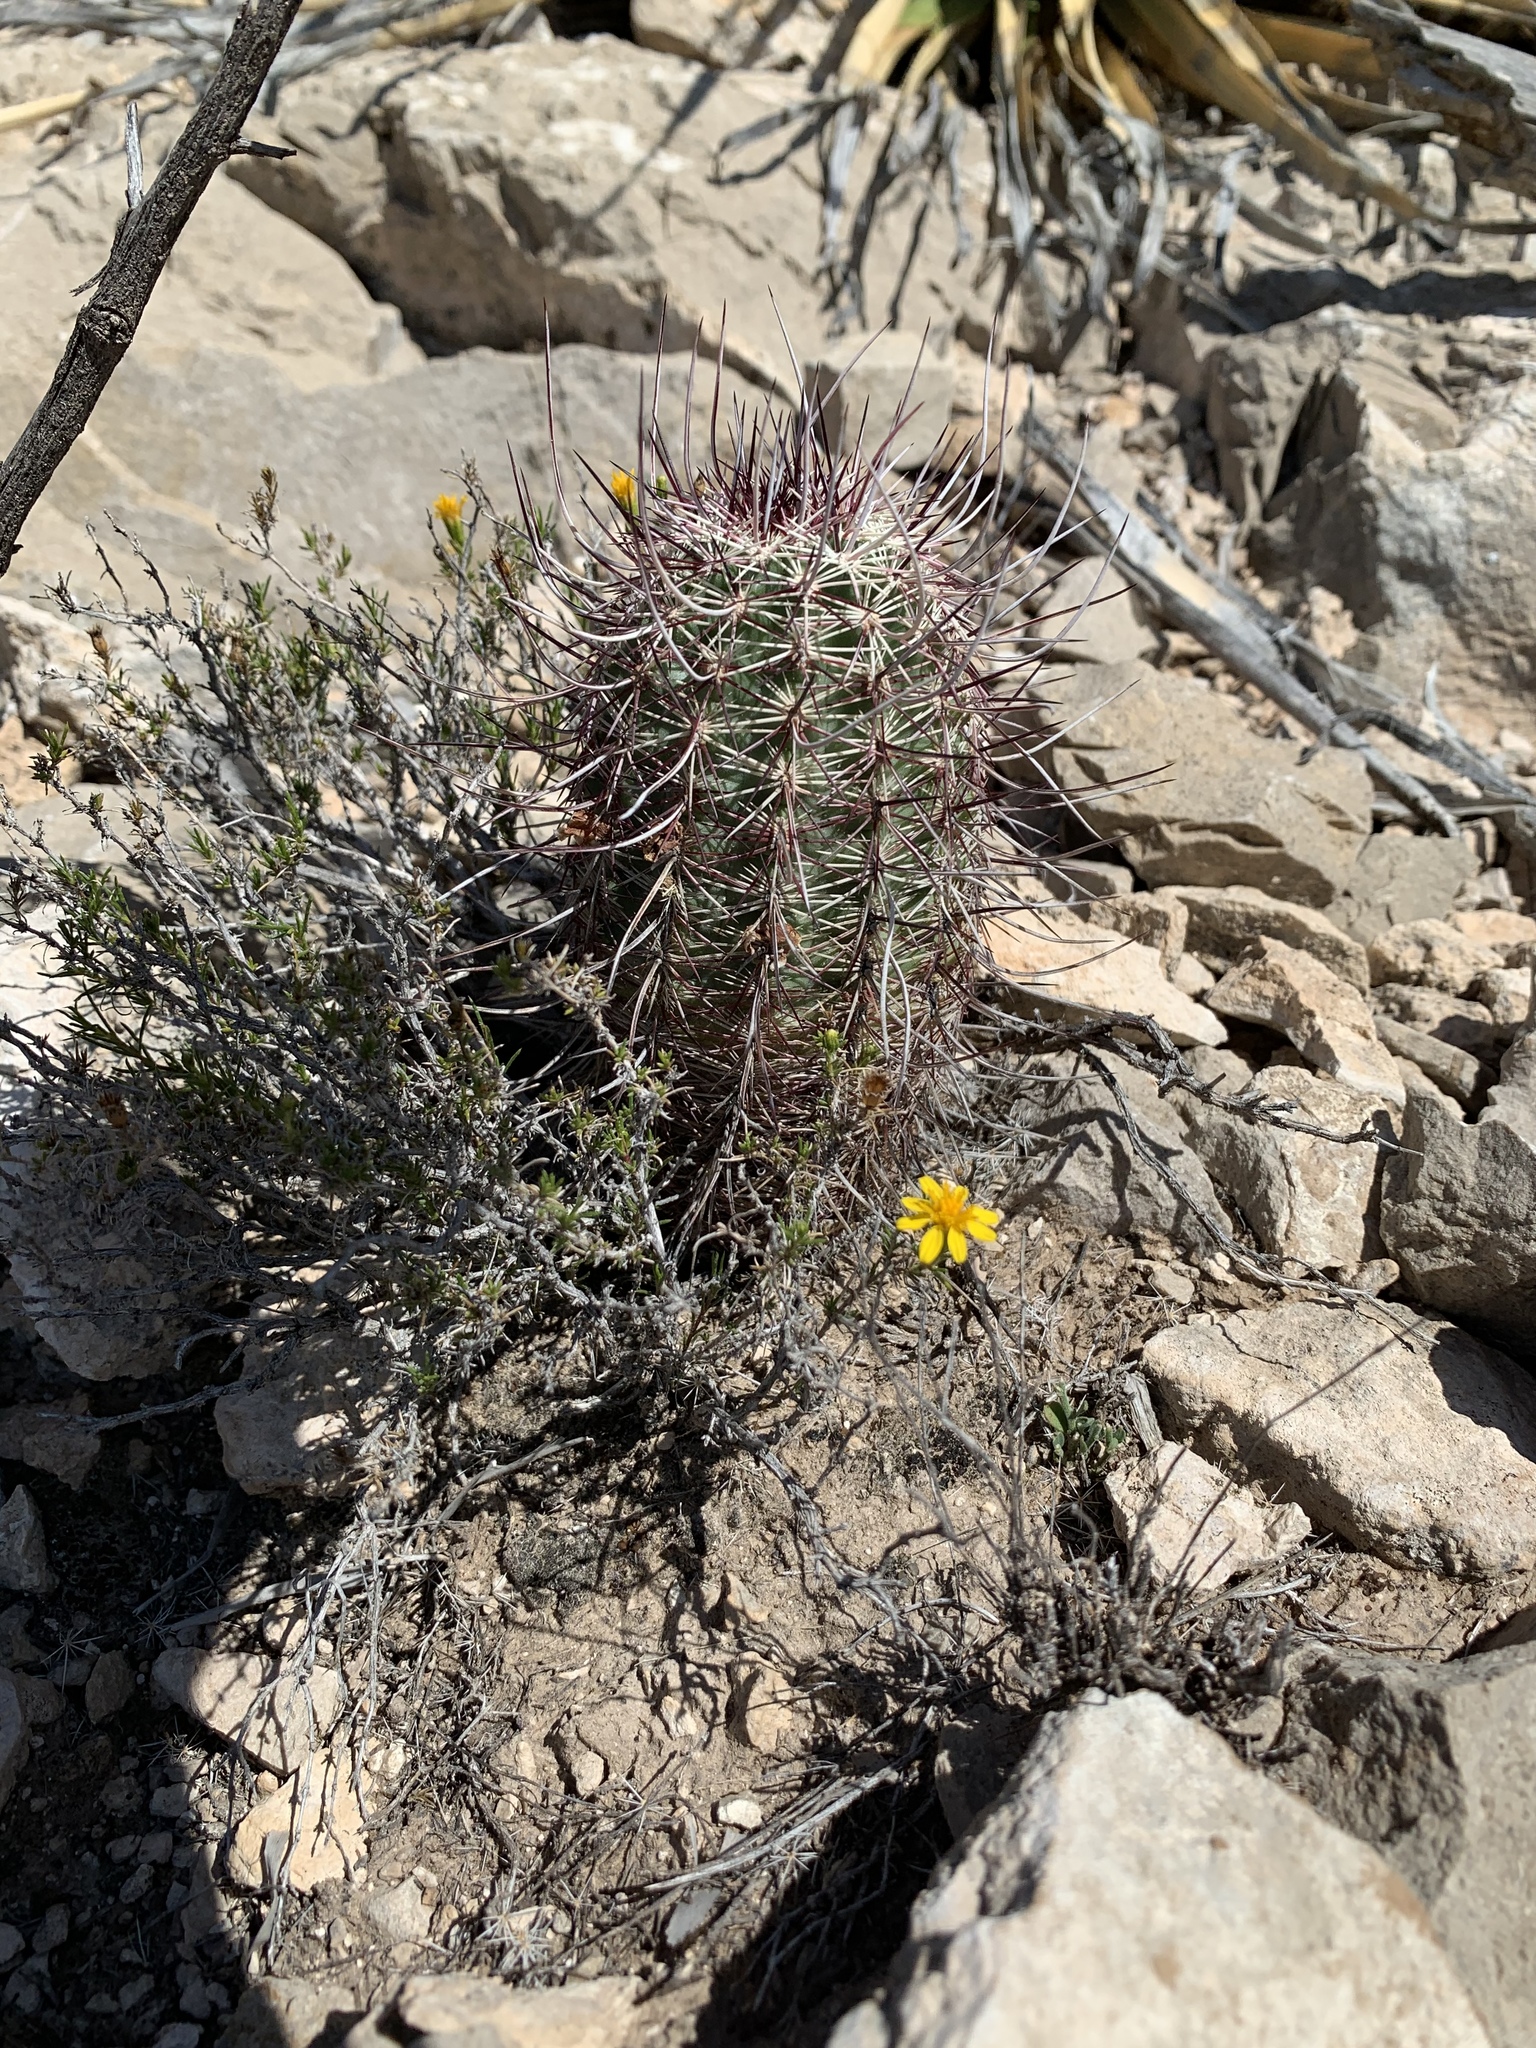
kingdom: Plantae
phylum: Tracheophyta
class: Magnoliopsida
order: Caryophyllales
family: Cactaceae
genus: Echinocereus
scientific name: Echinocereus viridiflorus
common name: Nylon hedgehog cactus
